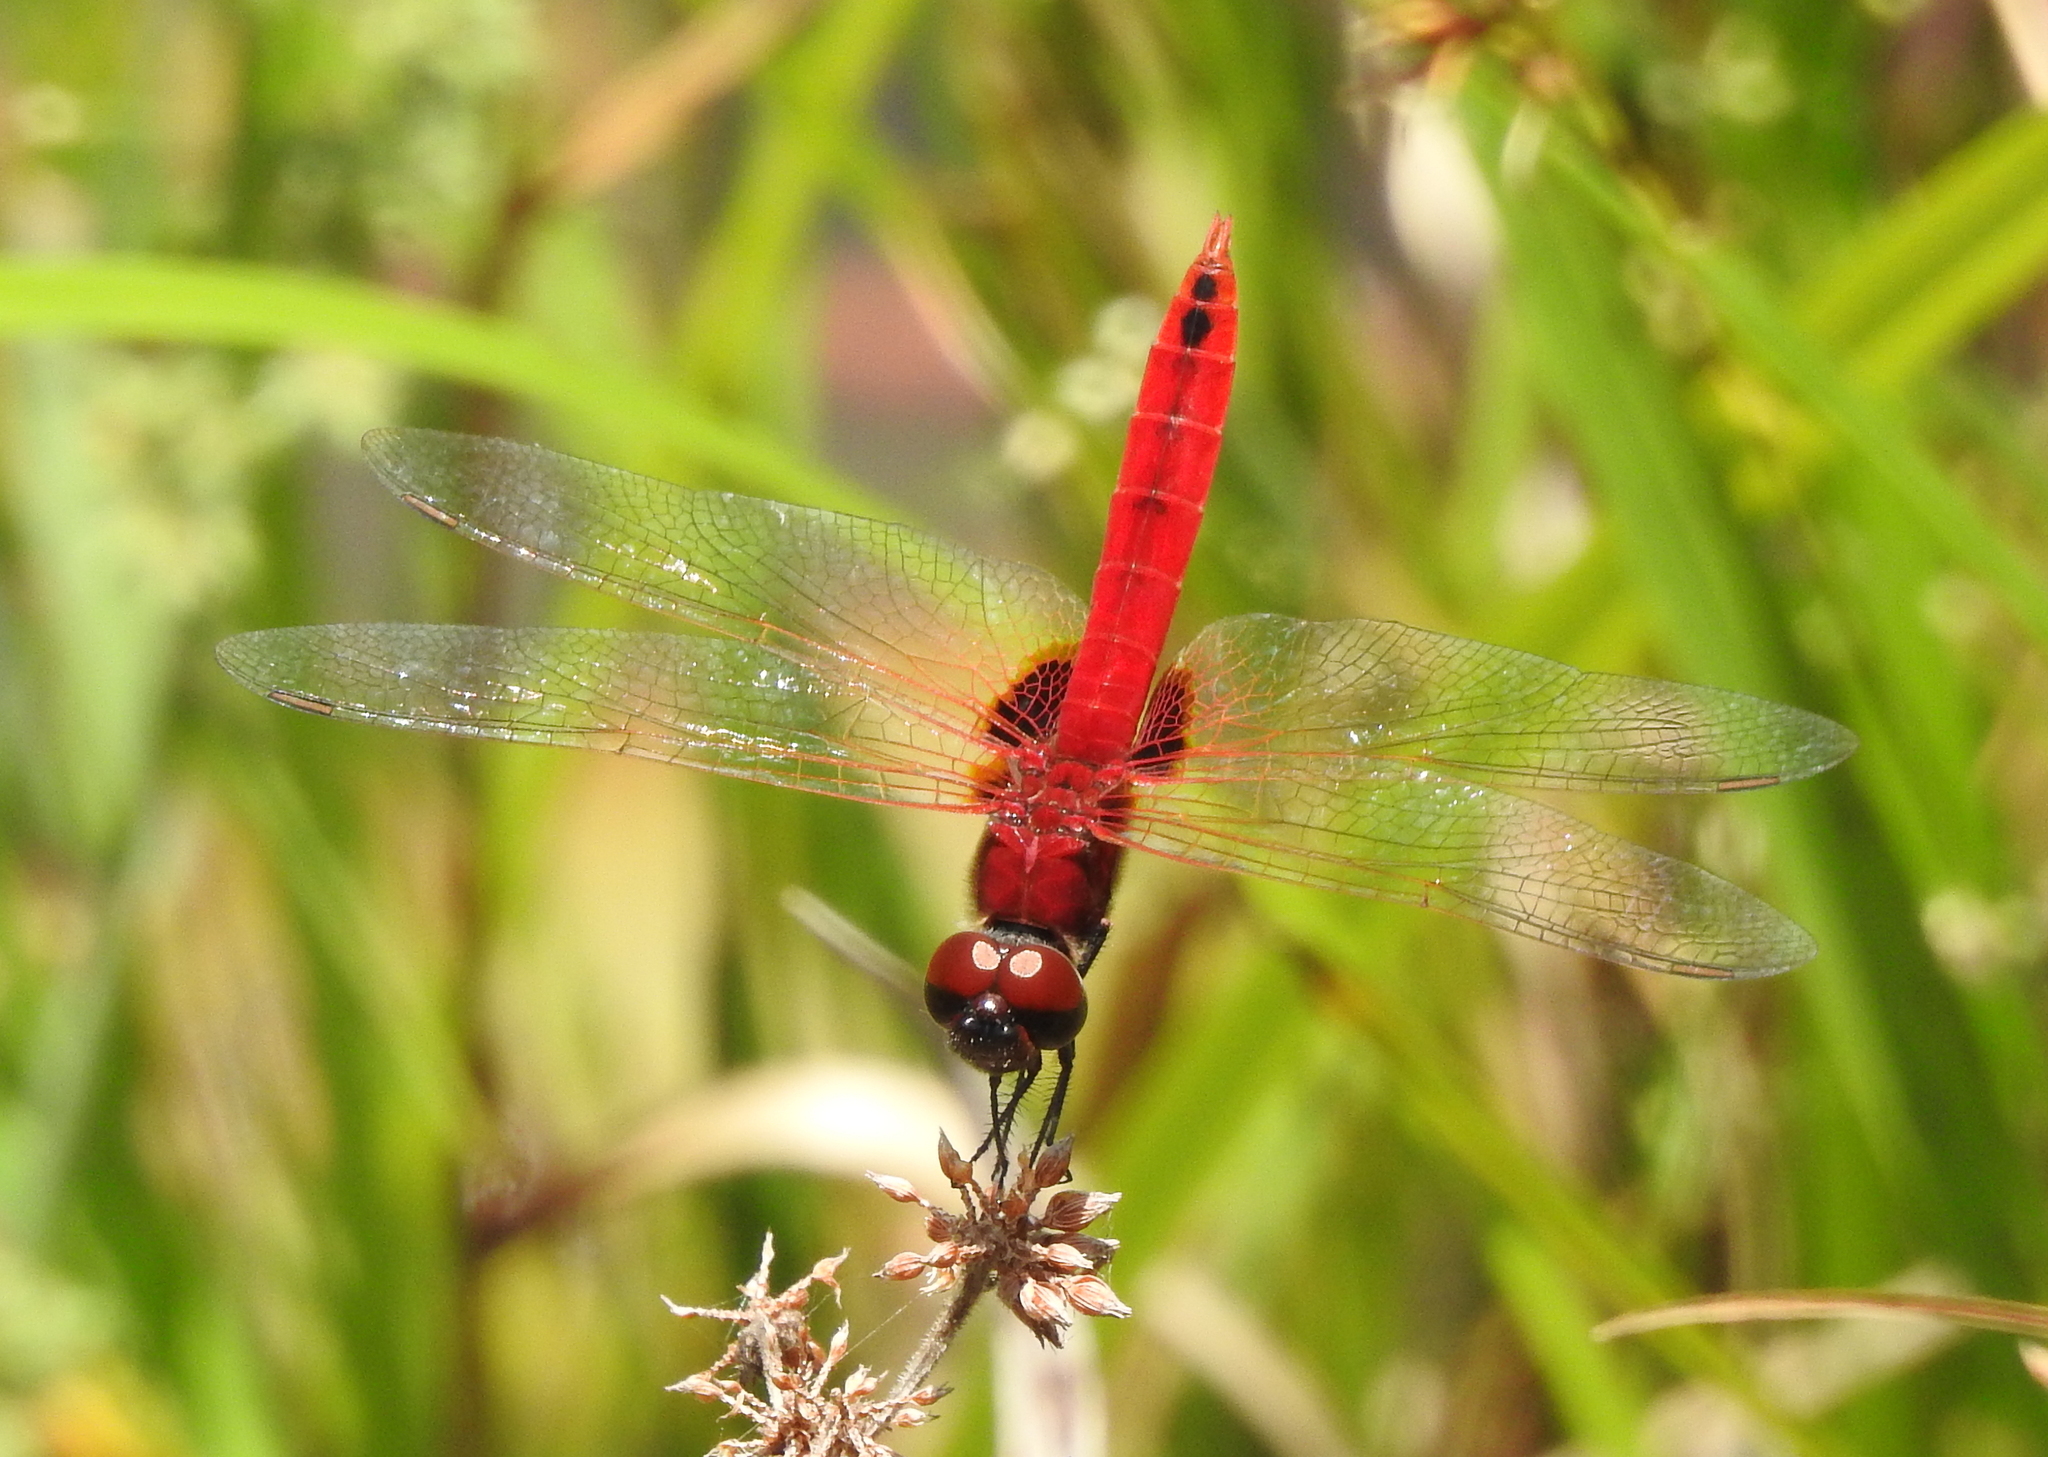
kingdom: Animalia
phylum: Arthropoda
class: Insecta
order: Odonata
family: Libellulidae
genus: Urothemis
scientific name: Urothemis signata
